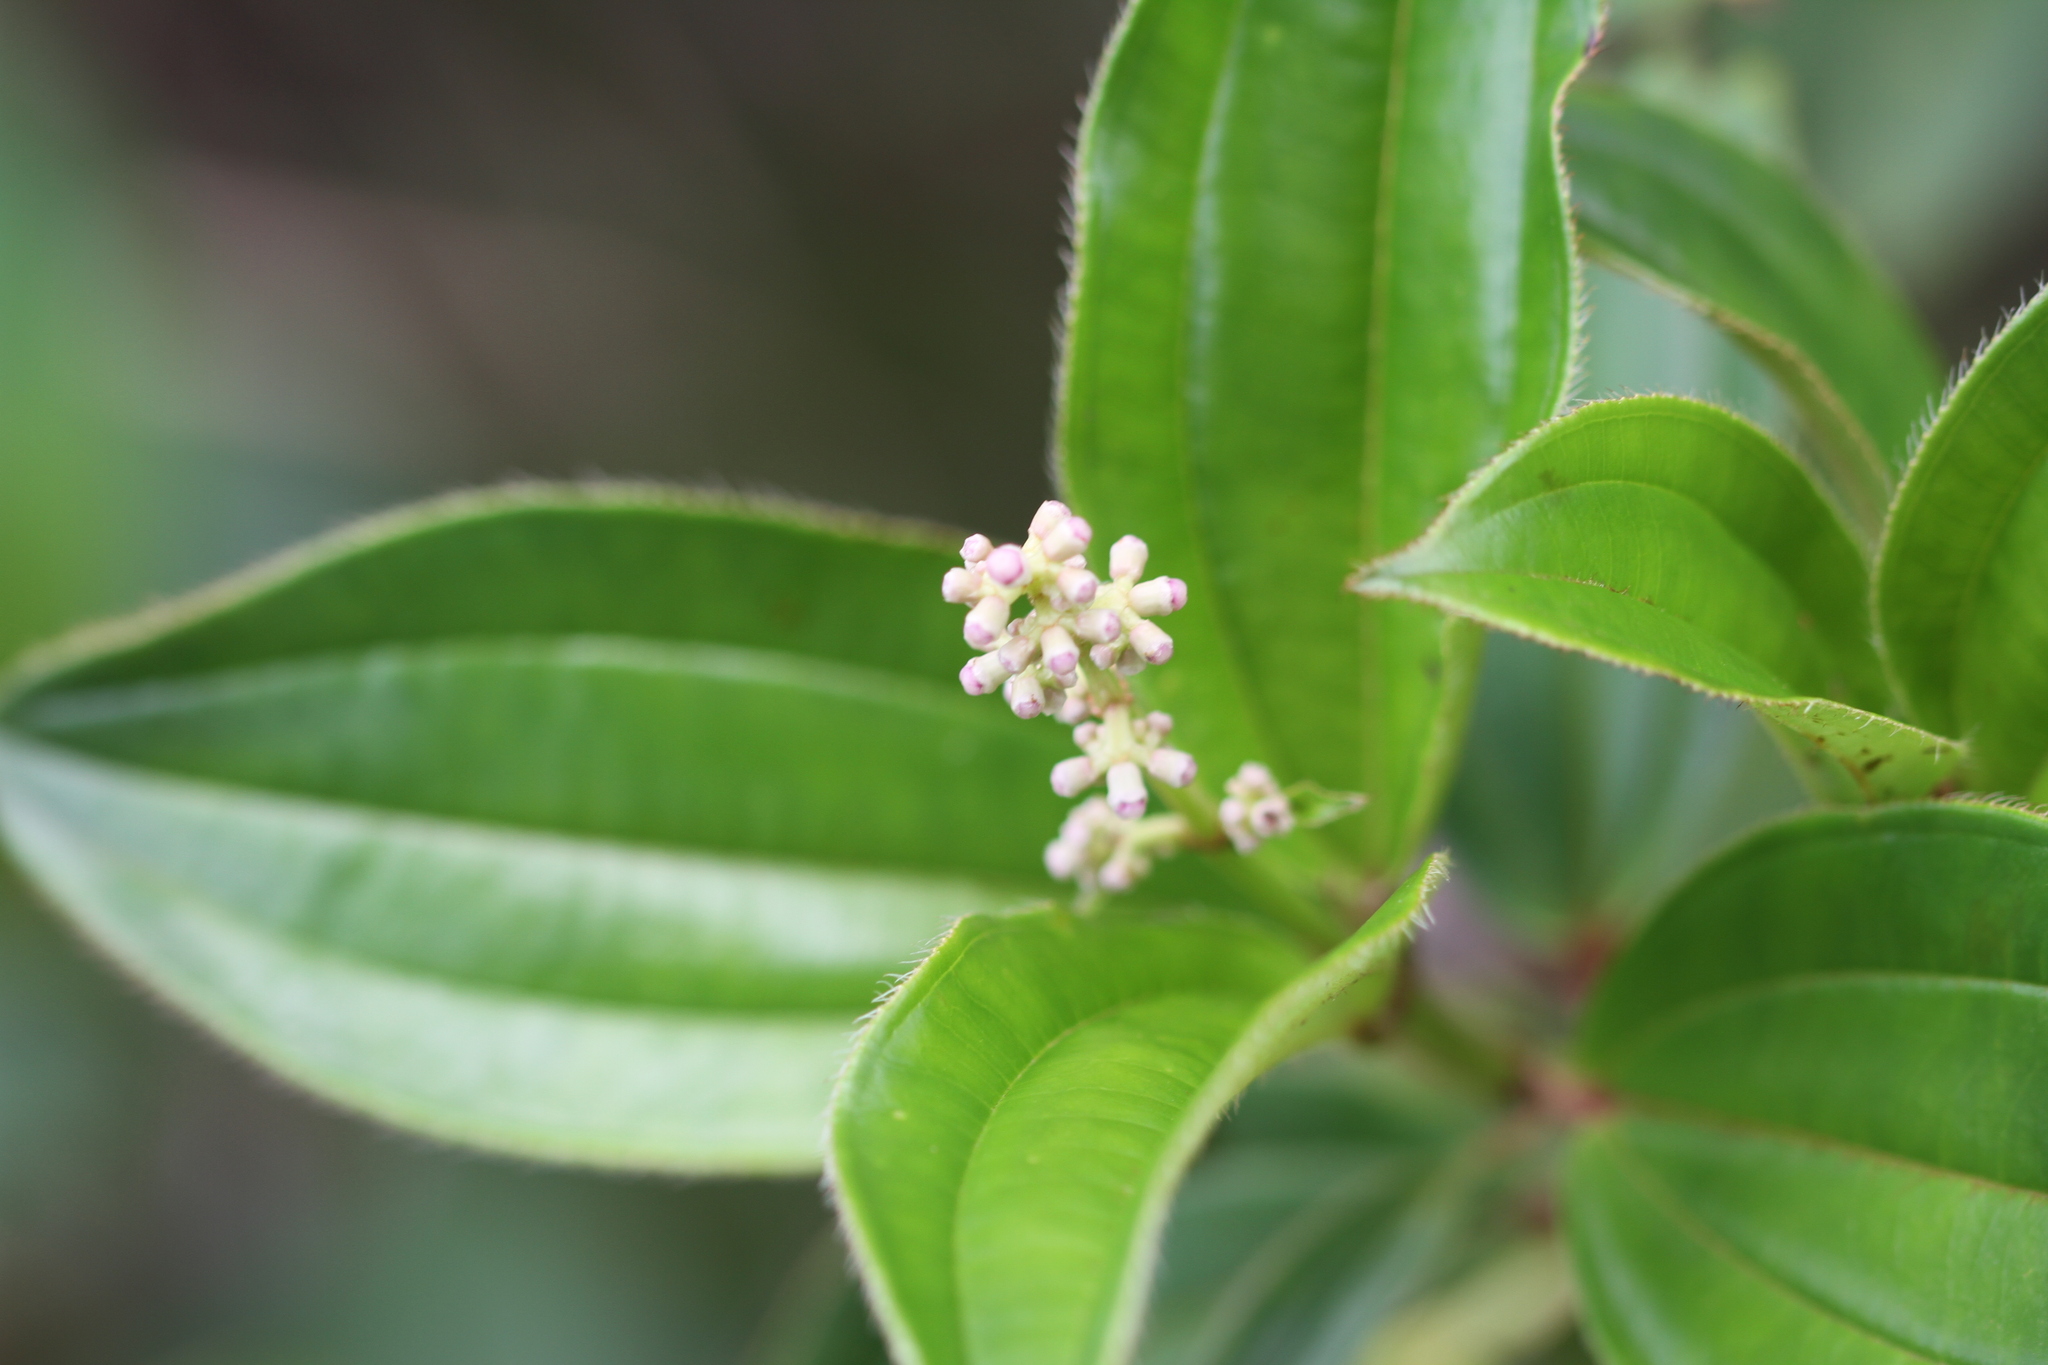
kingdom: Plantae
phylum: Tracheophyta
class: Magnoliopsida
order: Myrtales
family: Melastomataceae
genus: Miconia
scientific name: Miconia ciliata
